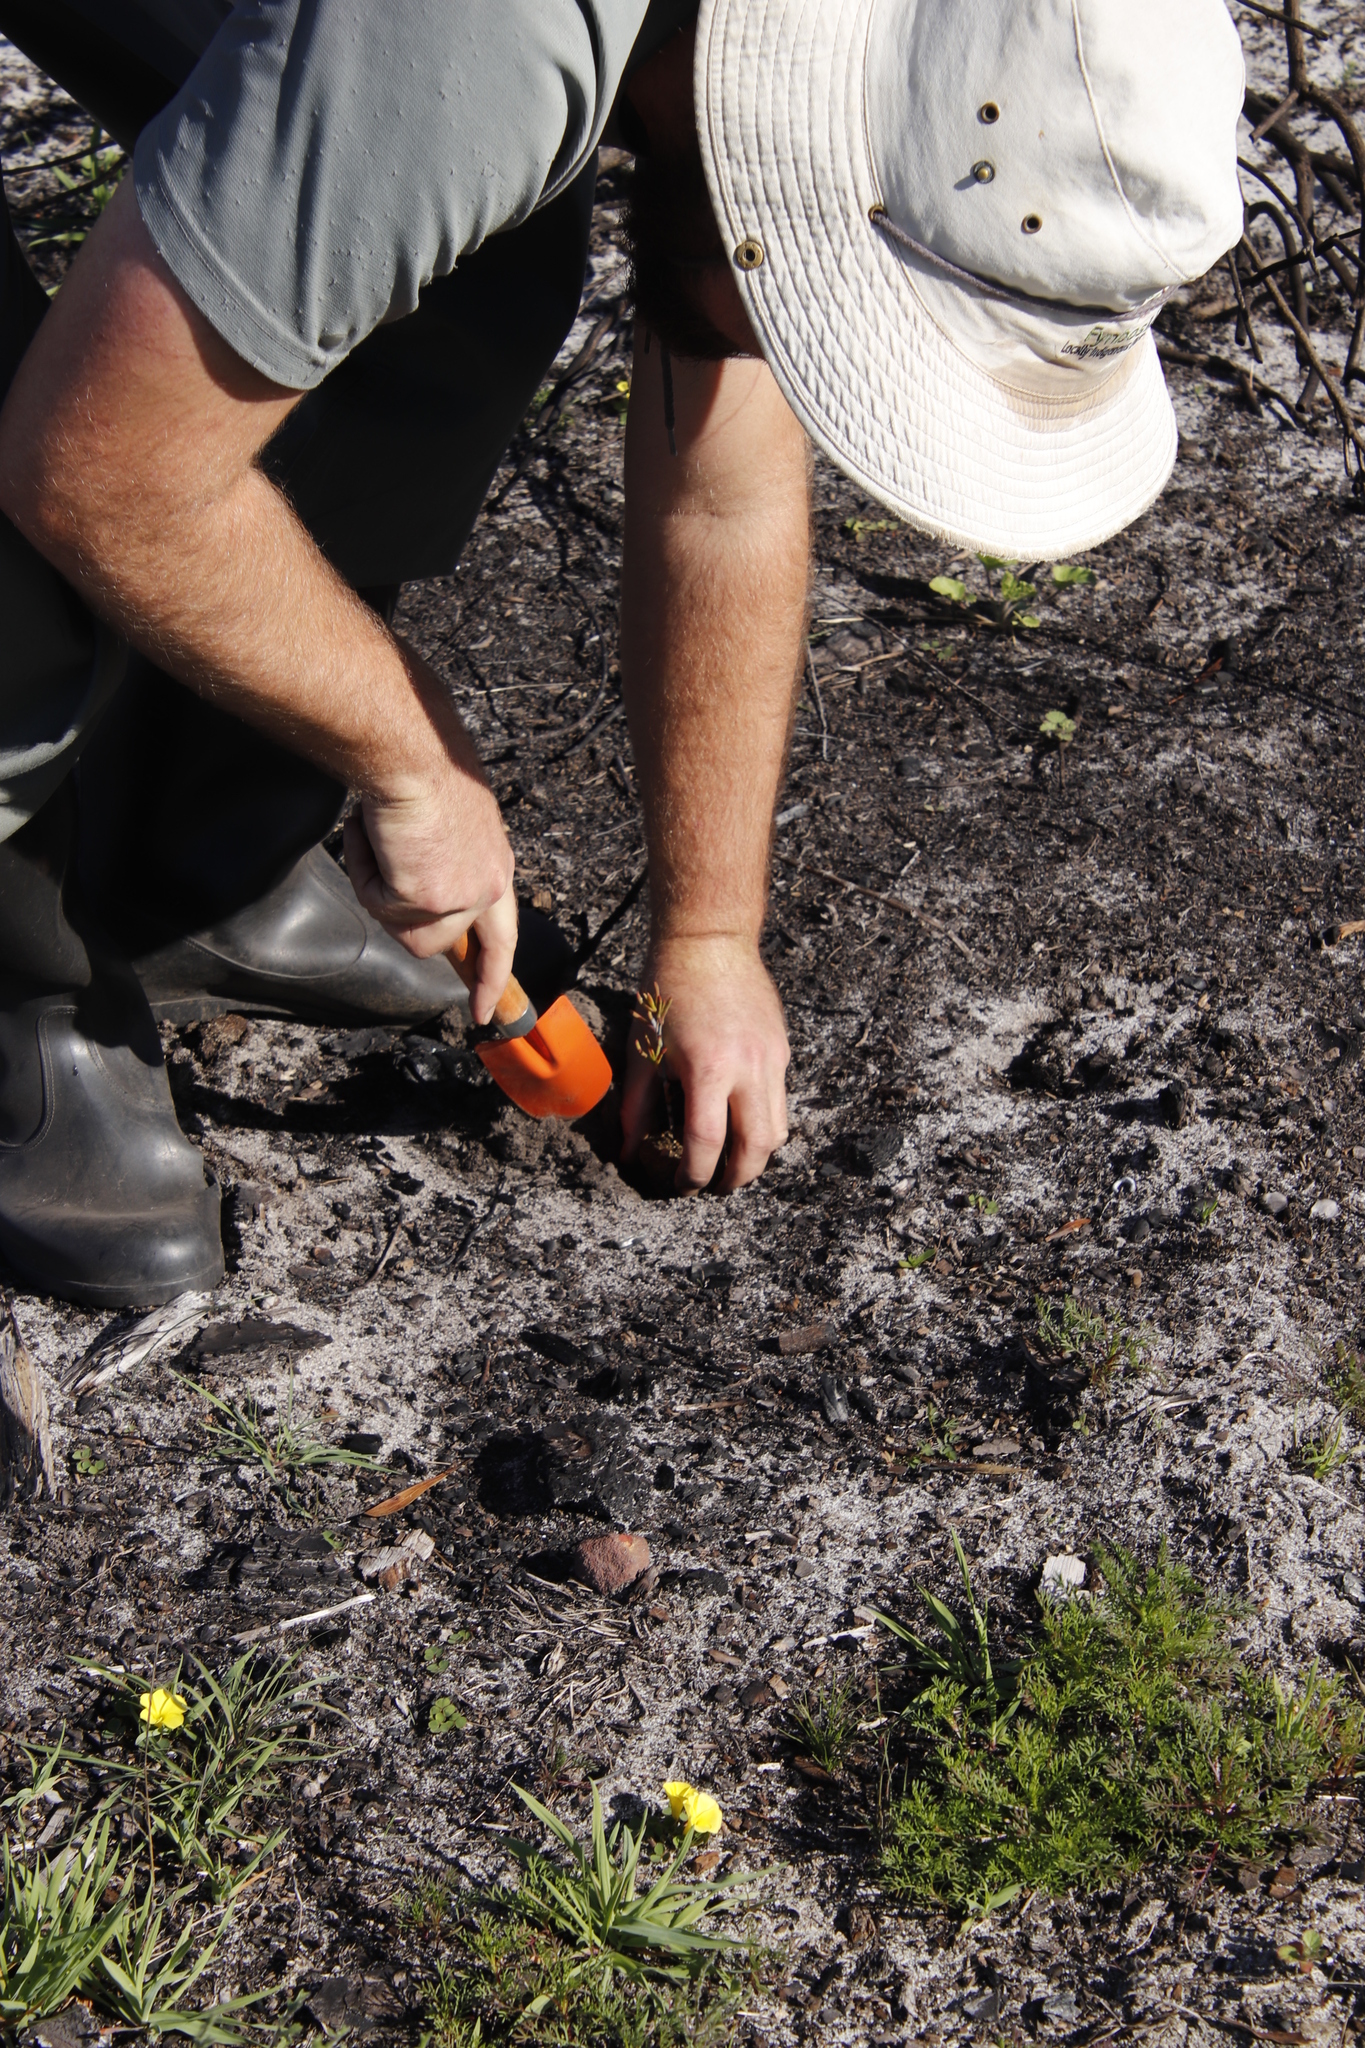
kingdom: Plantae
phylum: Tracheophyta
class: Magnoliopsida
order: Oxalidales
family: Oxalidaceae
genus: Oxalis
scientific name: Oxalis luteola
